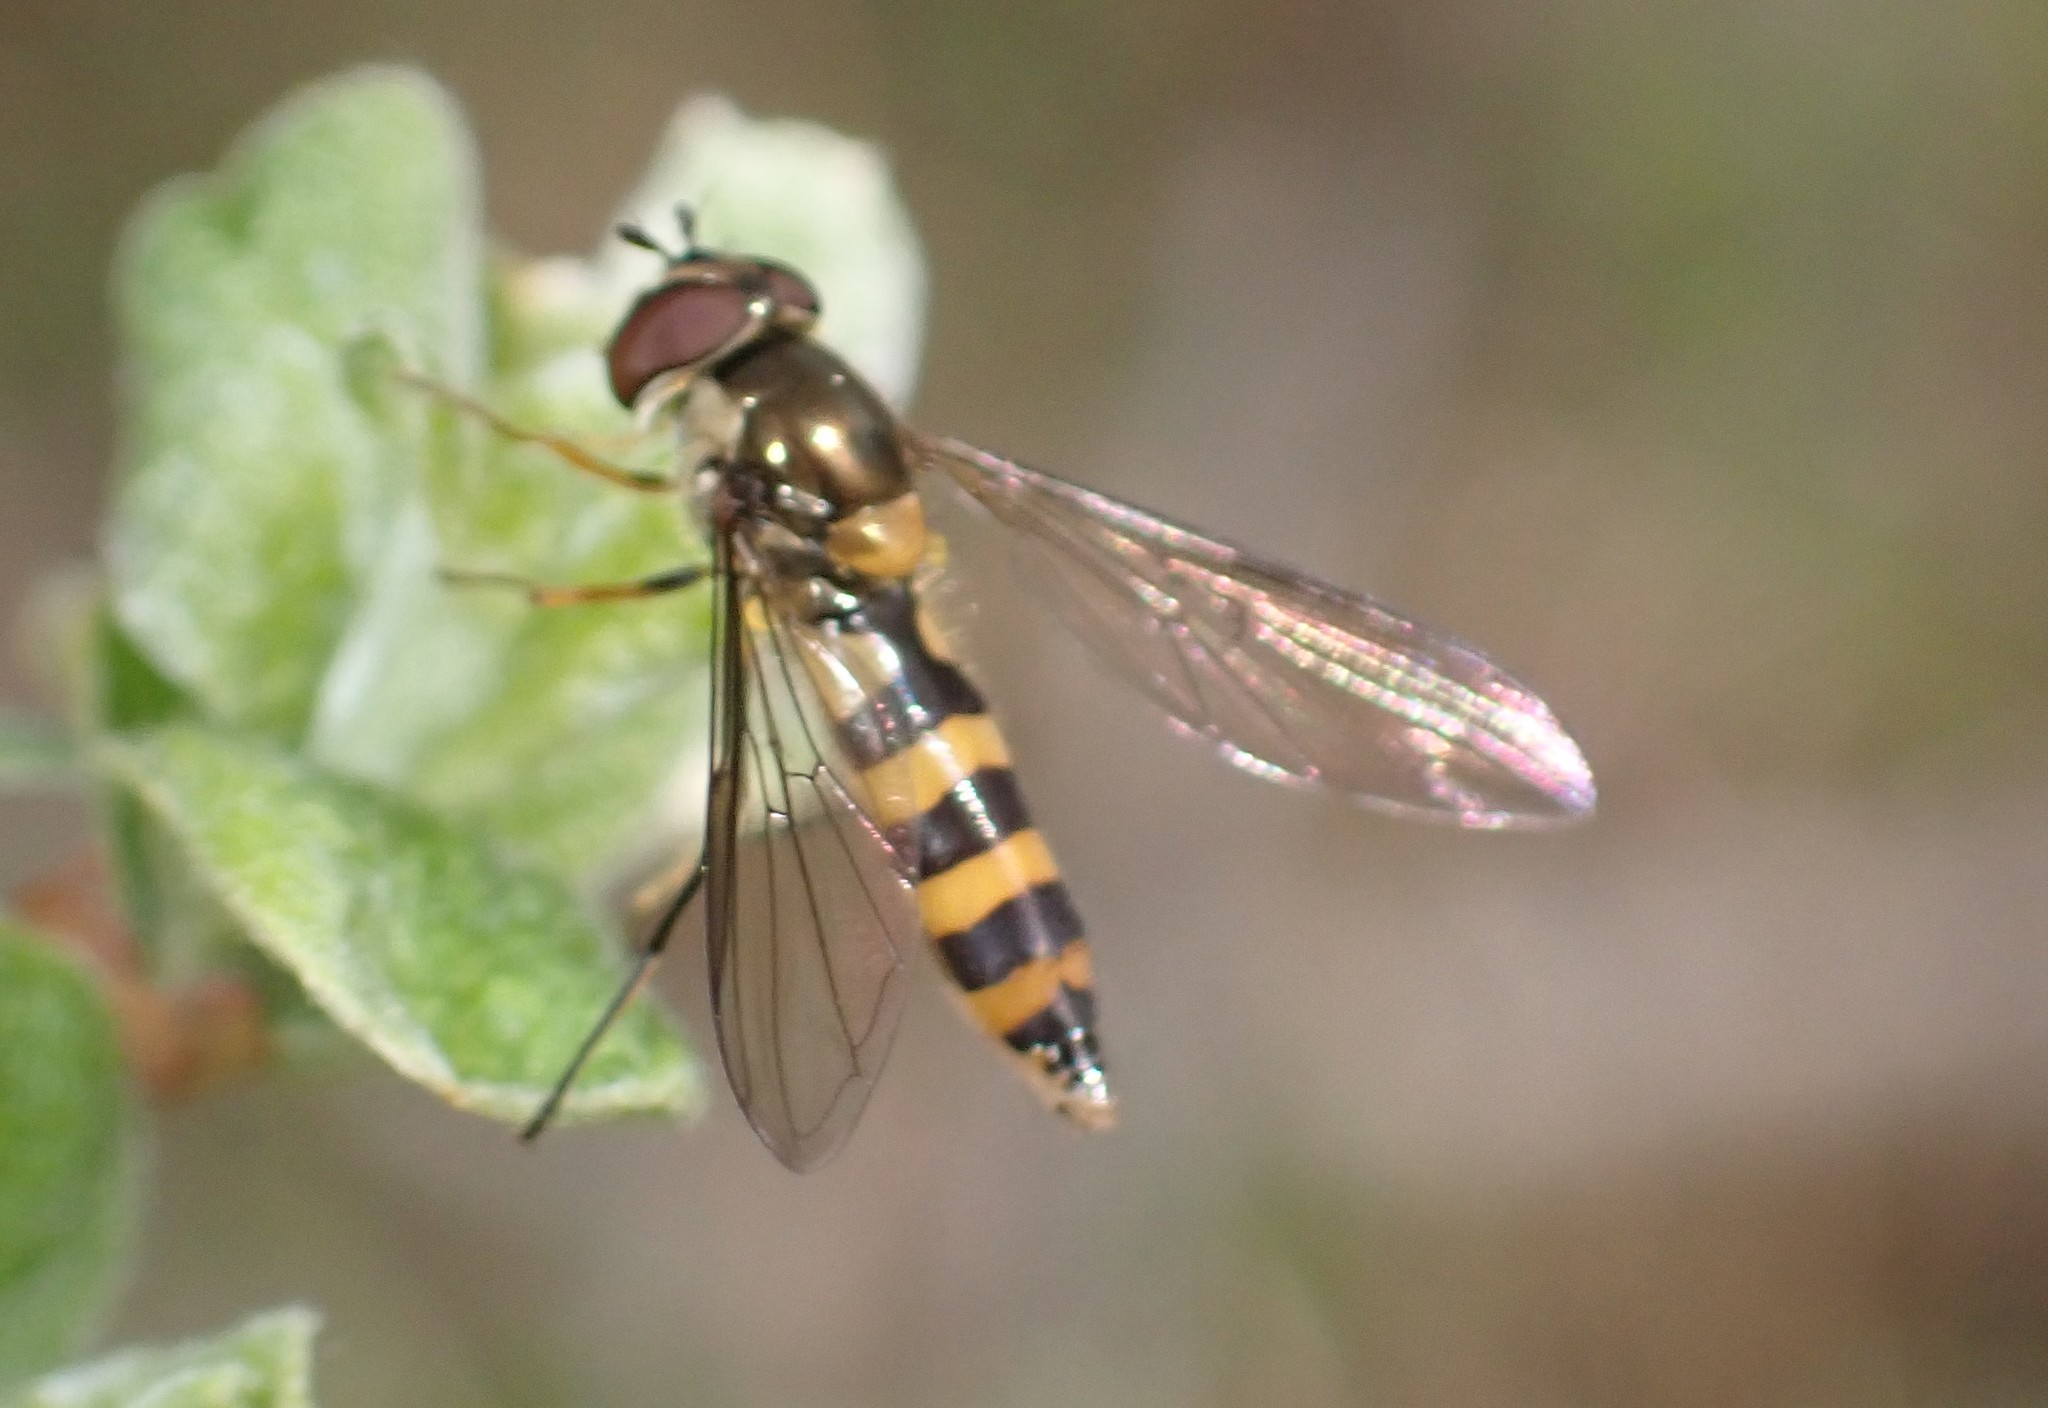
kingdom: Animalia
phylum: Arthropoda
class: Insecta
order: Diptera
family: Syrphidae
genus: Meliscaeva
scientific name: Meliscaeva cinctella
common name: American thintail fly
